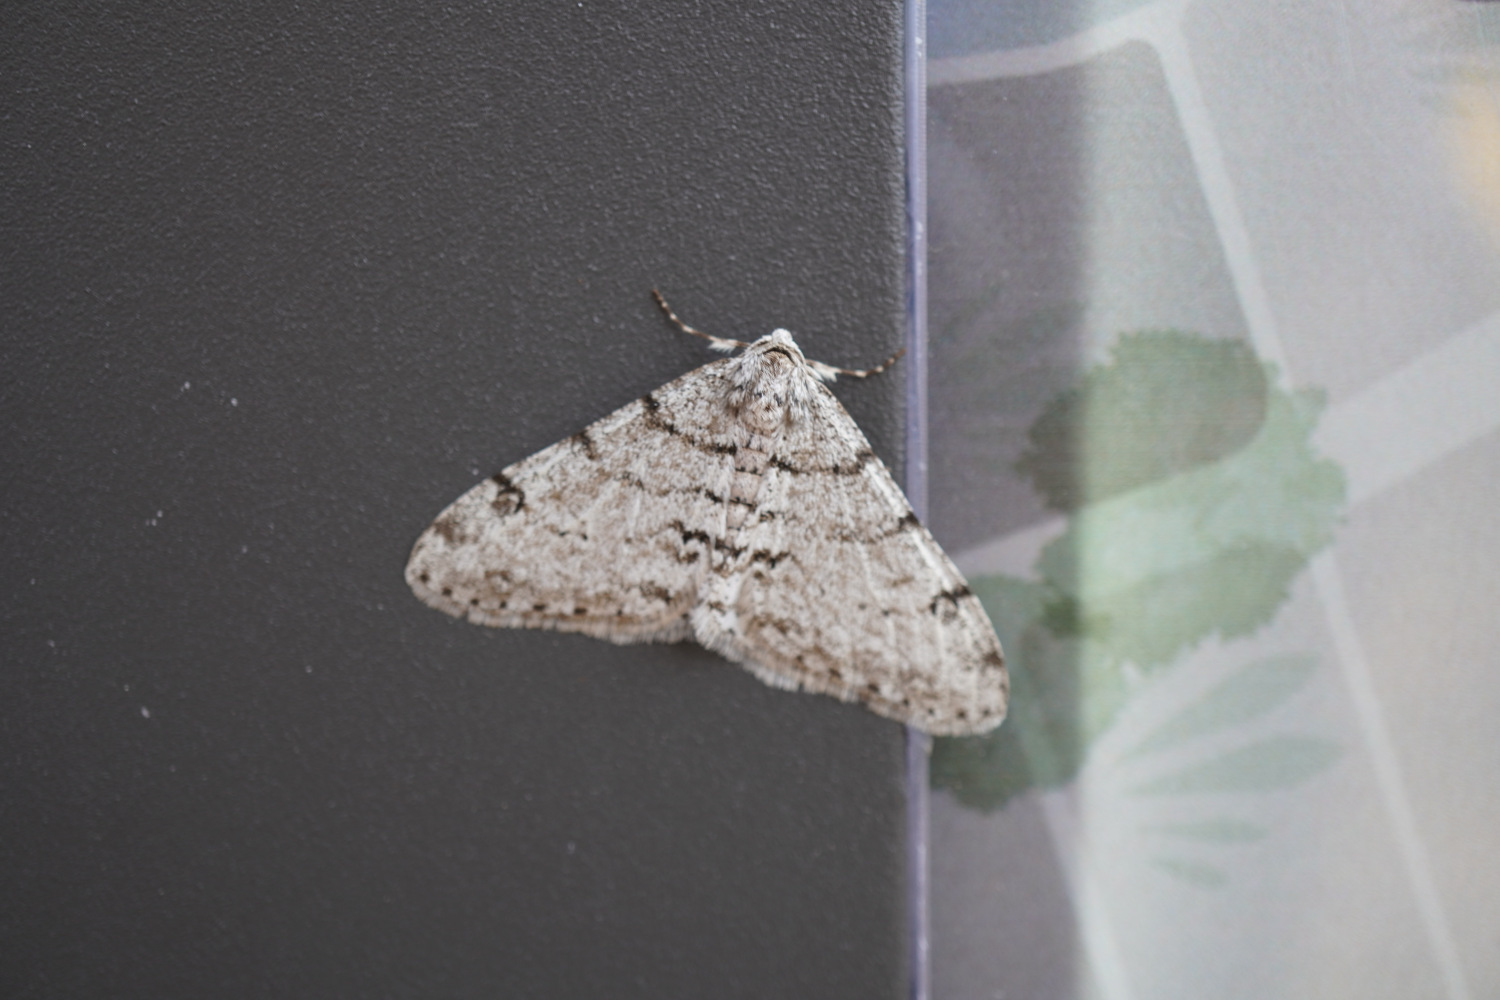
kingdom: Animalia
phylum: Arthropoda
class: Insecta
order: Lepidoptera
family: Geometridae
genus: Phigalia
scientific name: Phigalia verecundaria
